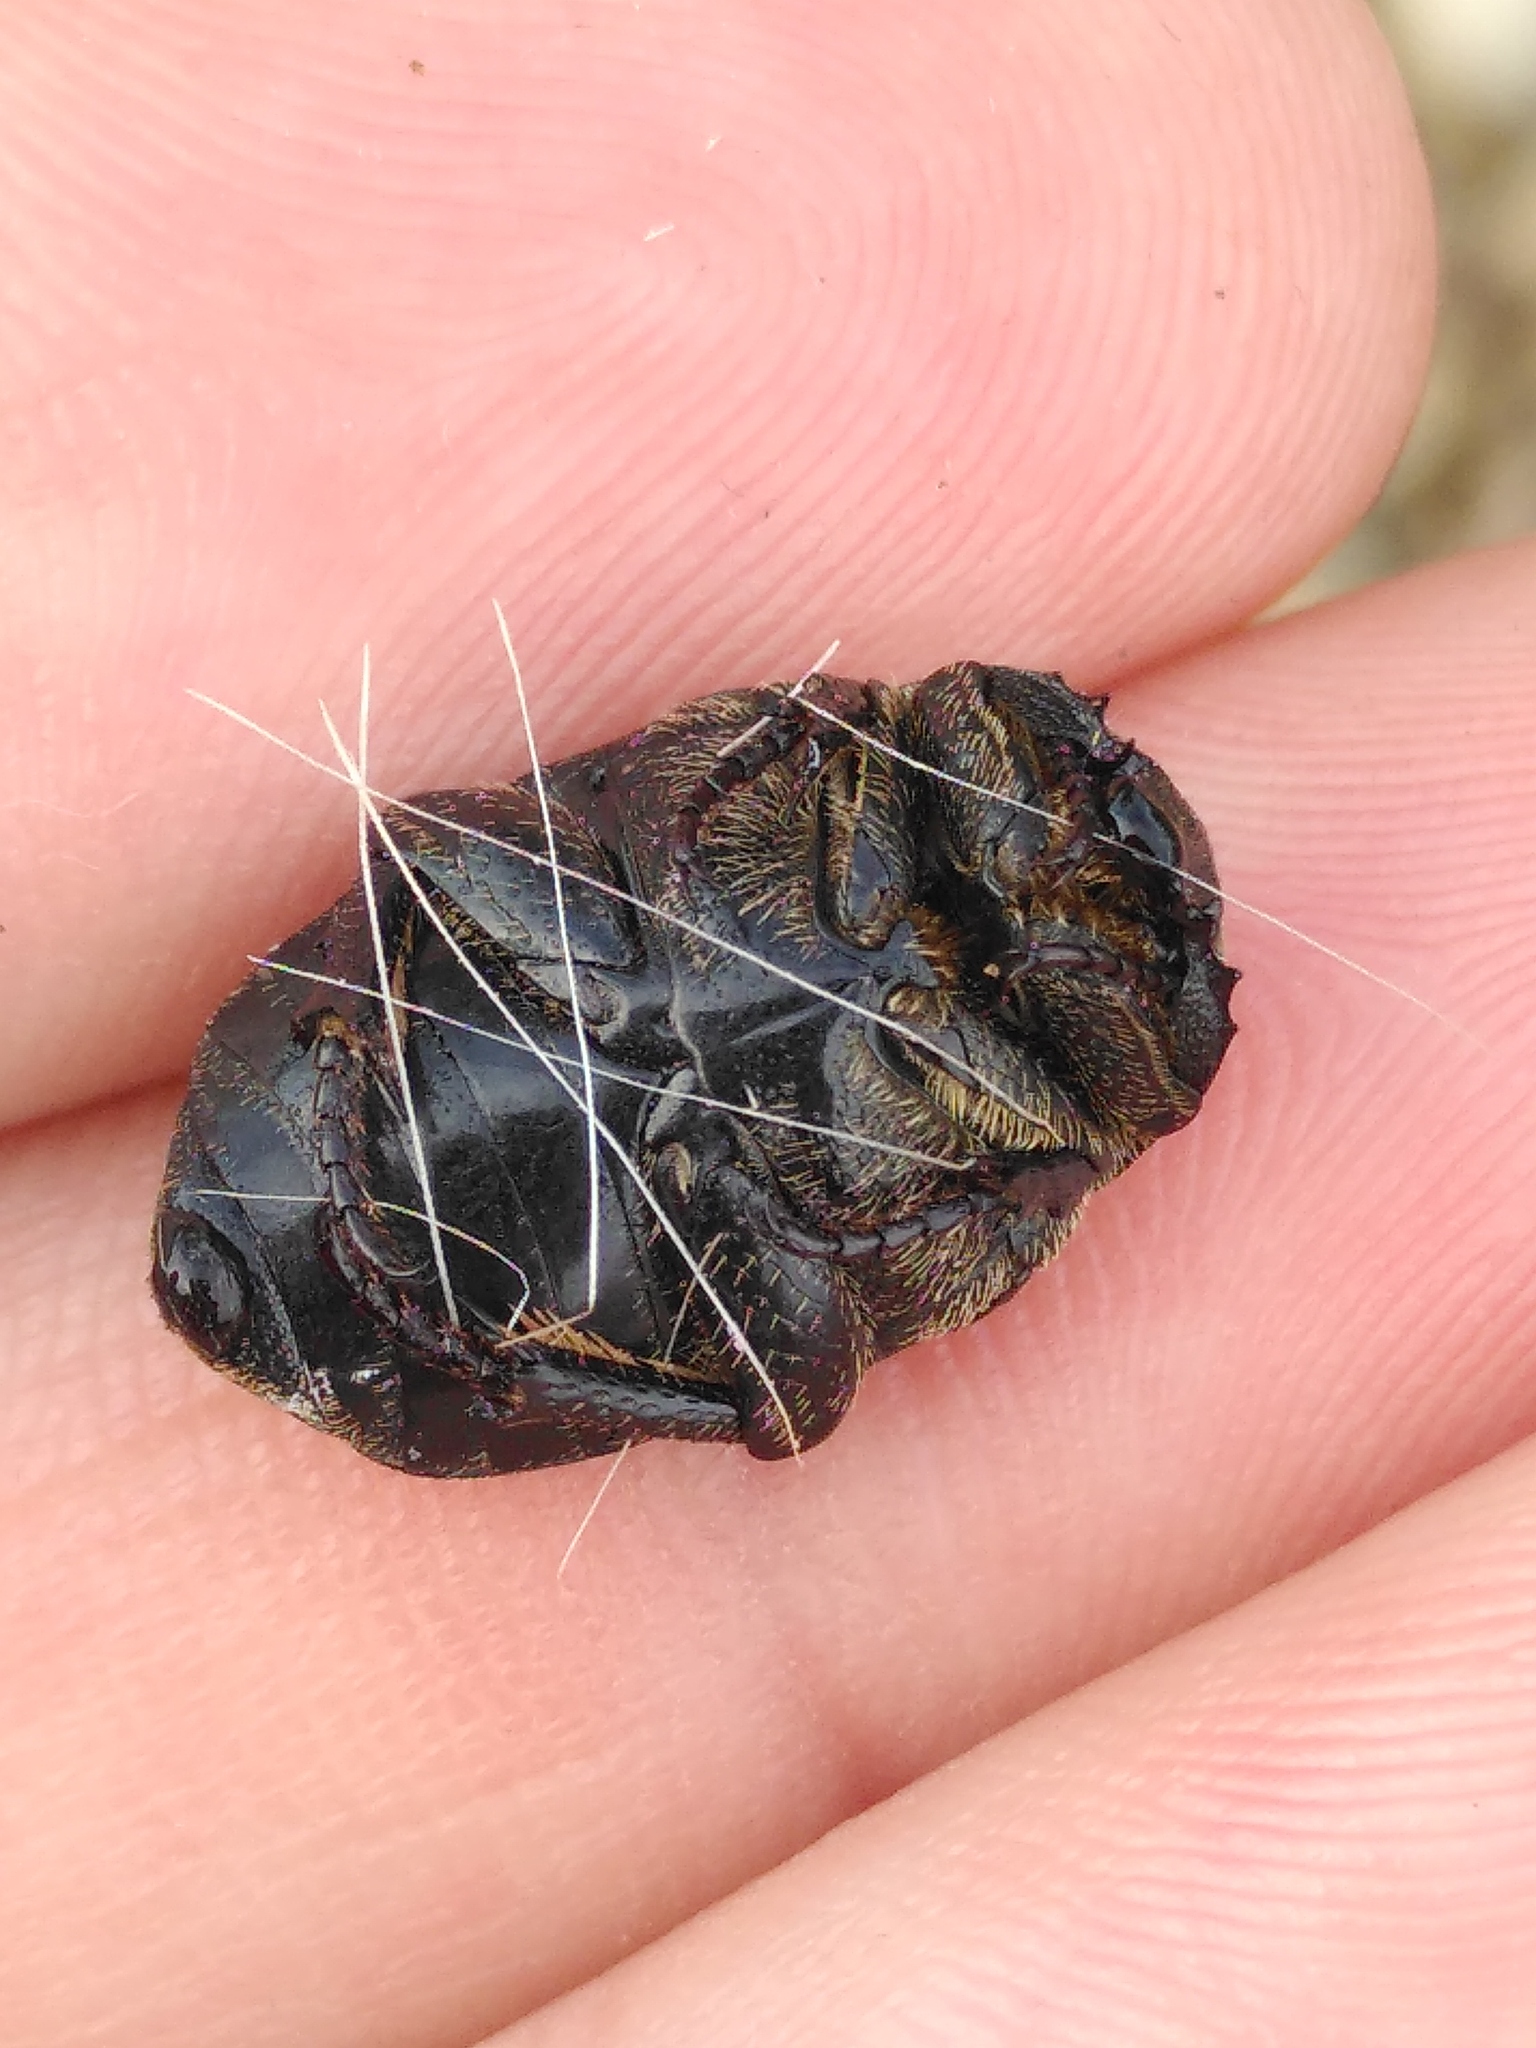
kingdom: Animalia
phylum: Arthropoda
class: Insecta
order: Coleoptera
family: Scarabaeidae
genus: Protaetia
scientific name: Protaetia morio
